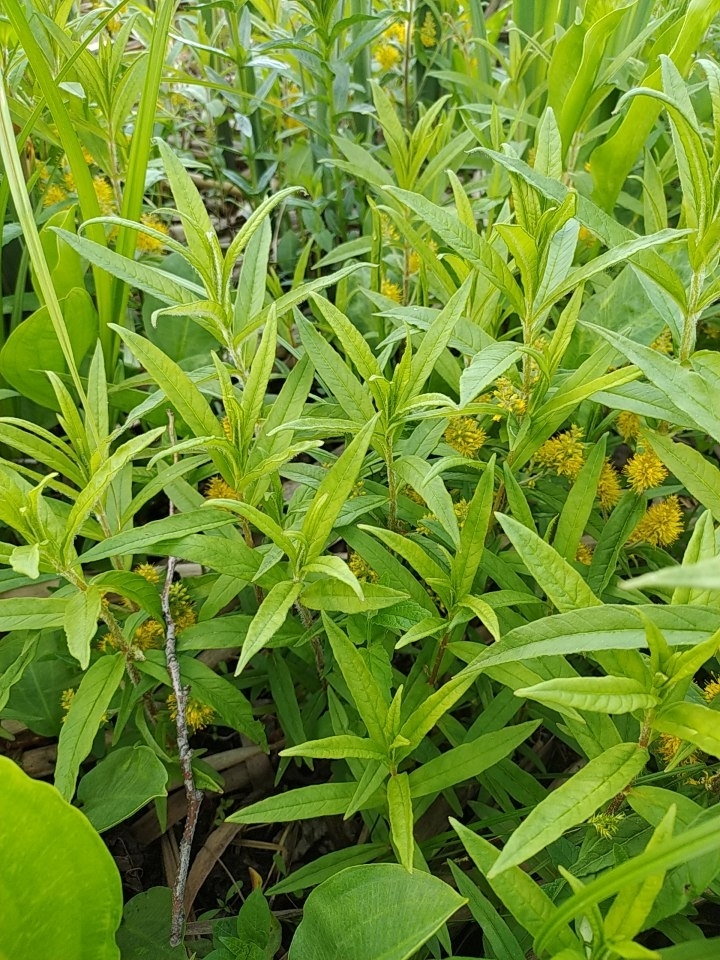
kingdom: Plantae
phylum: Tracheophyta
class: Magnoliopsida
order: Ericales
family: Primulaceae
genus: Lysimachia
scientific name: Lysimachia thyrsiflora
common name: Tufted loosestrife
